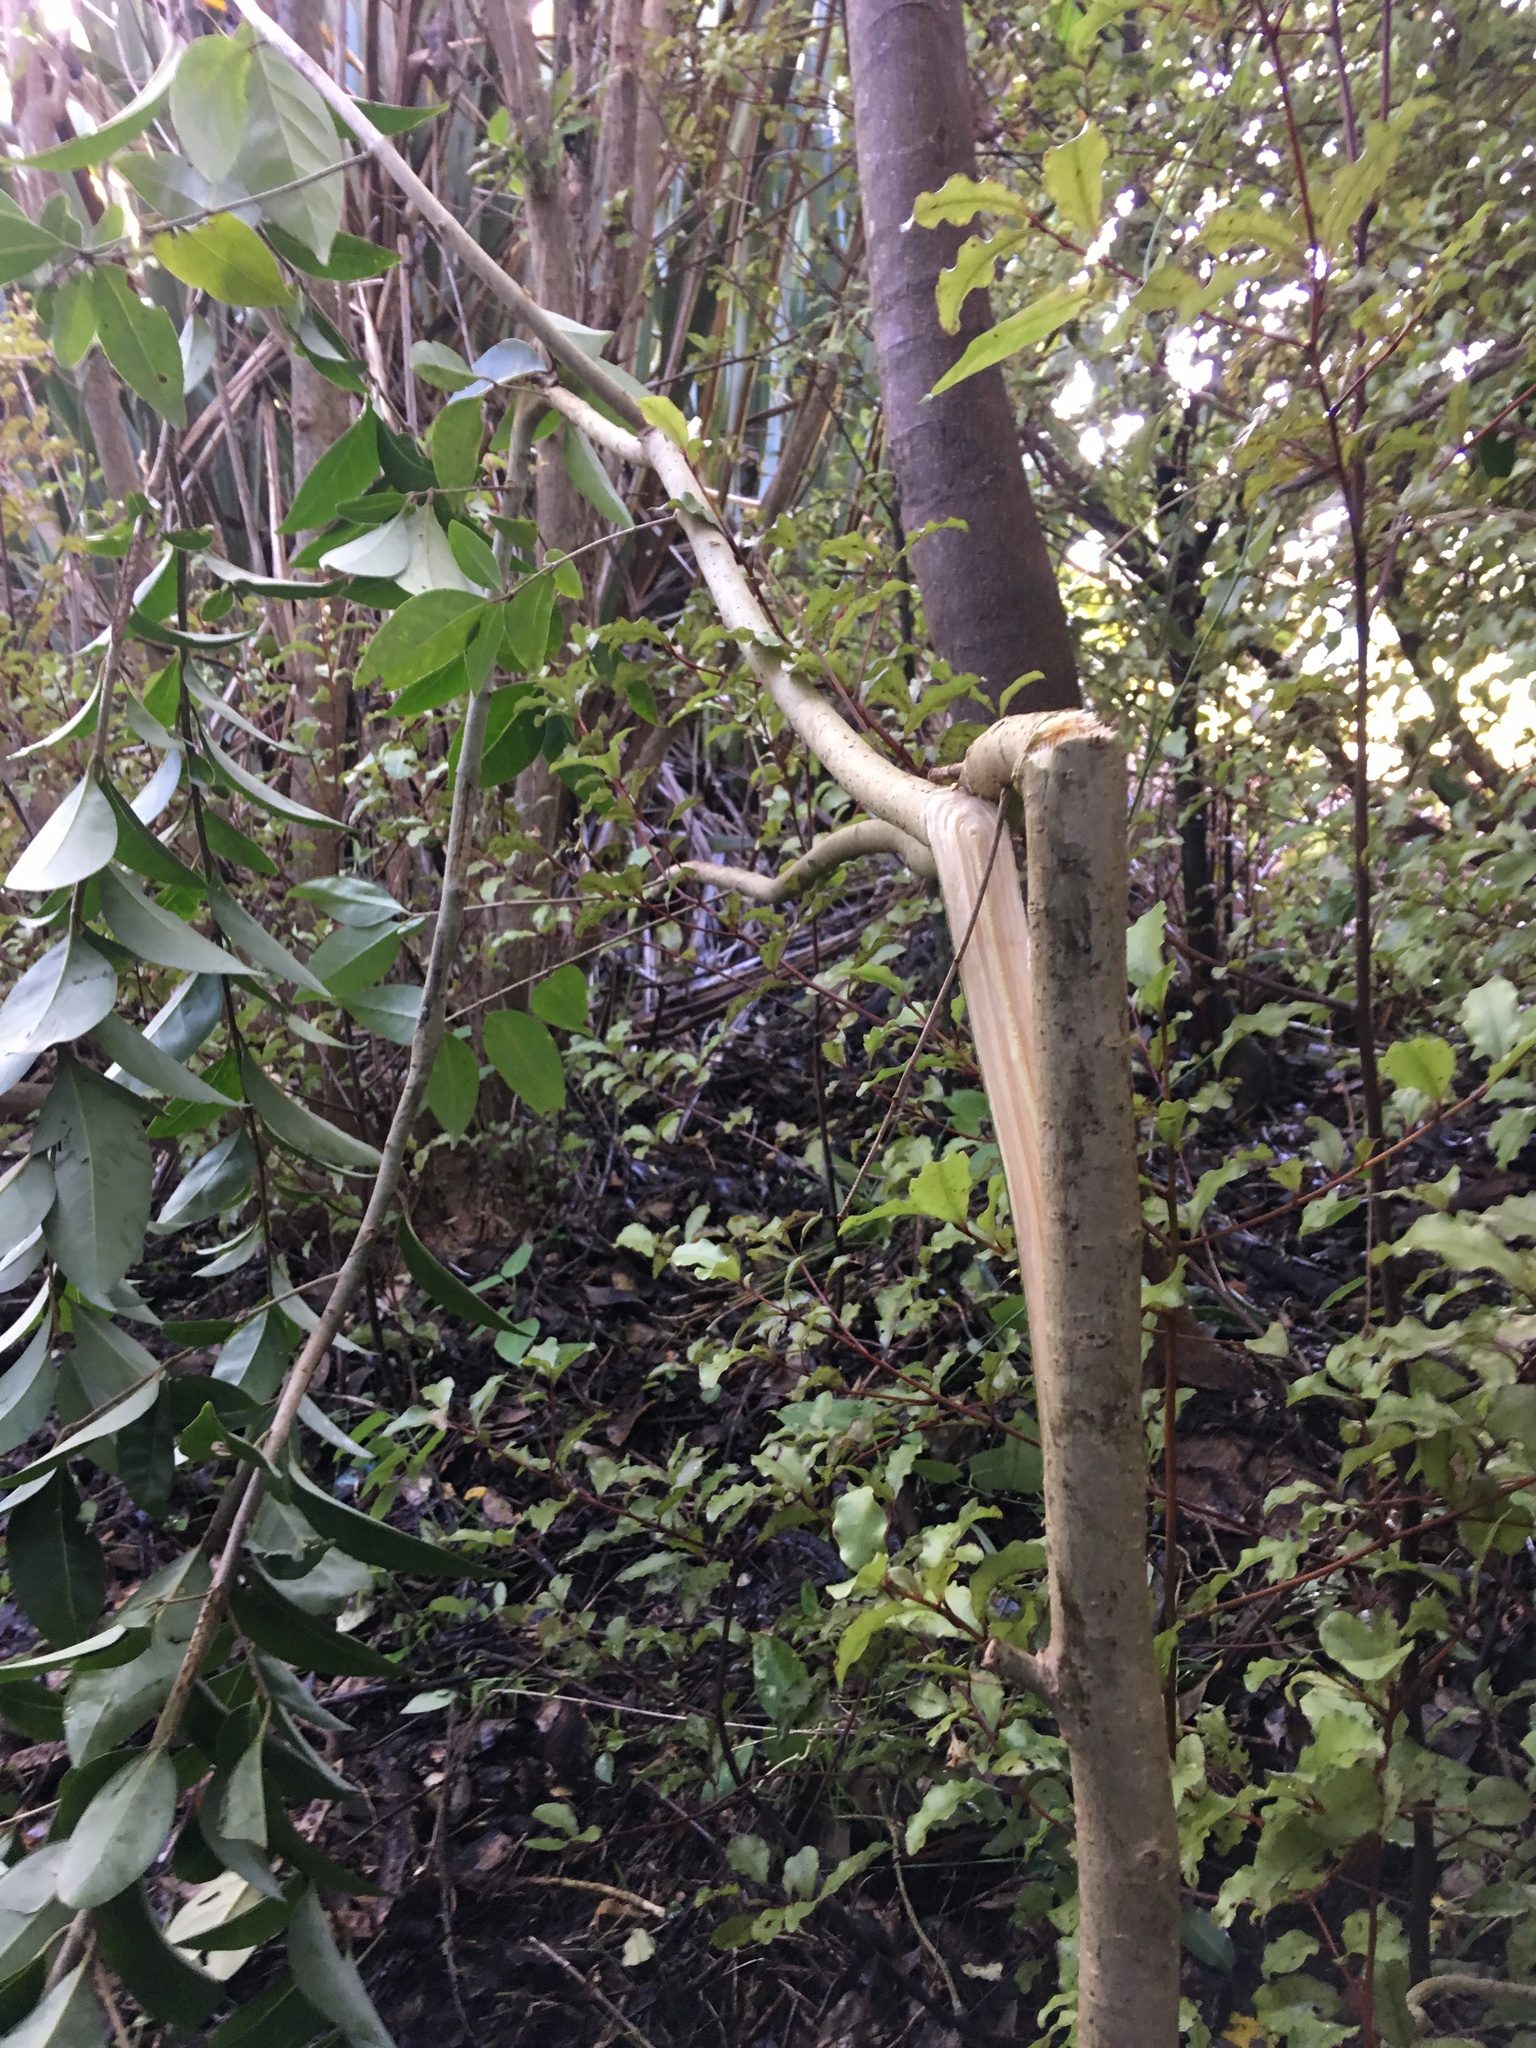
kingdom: Plantae
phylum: Tracheophyta
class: Magnoliopsida
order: Lamiales
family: Oleaceae
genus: Ligustrum
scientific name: Ligustrum lucidum
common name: Glossy privet
